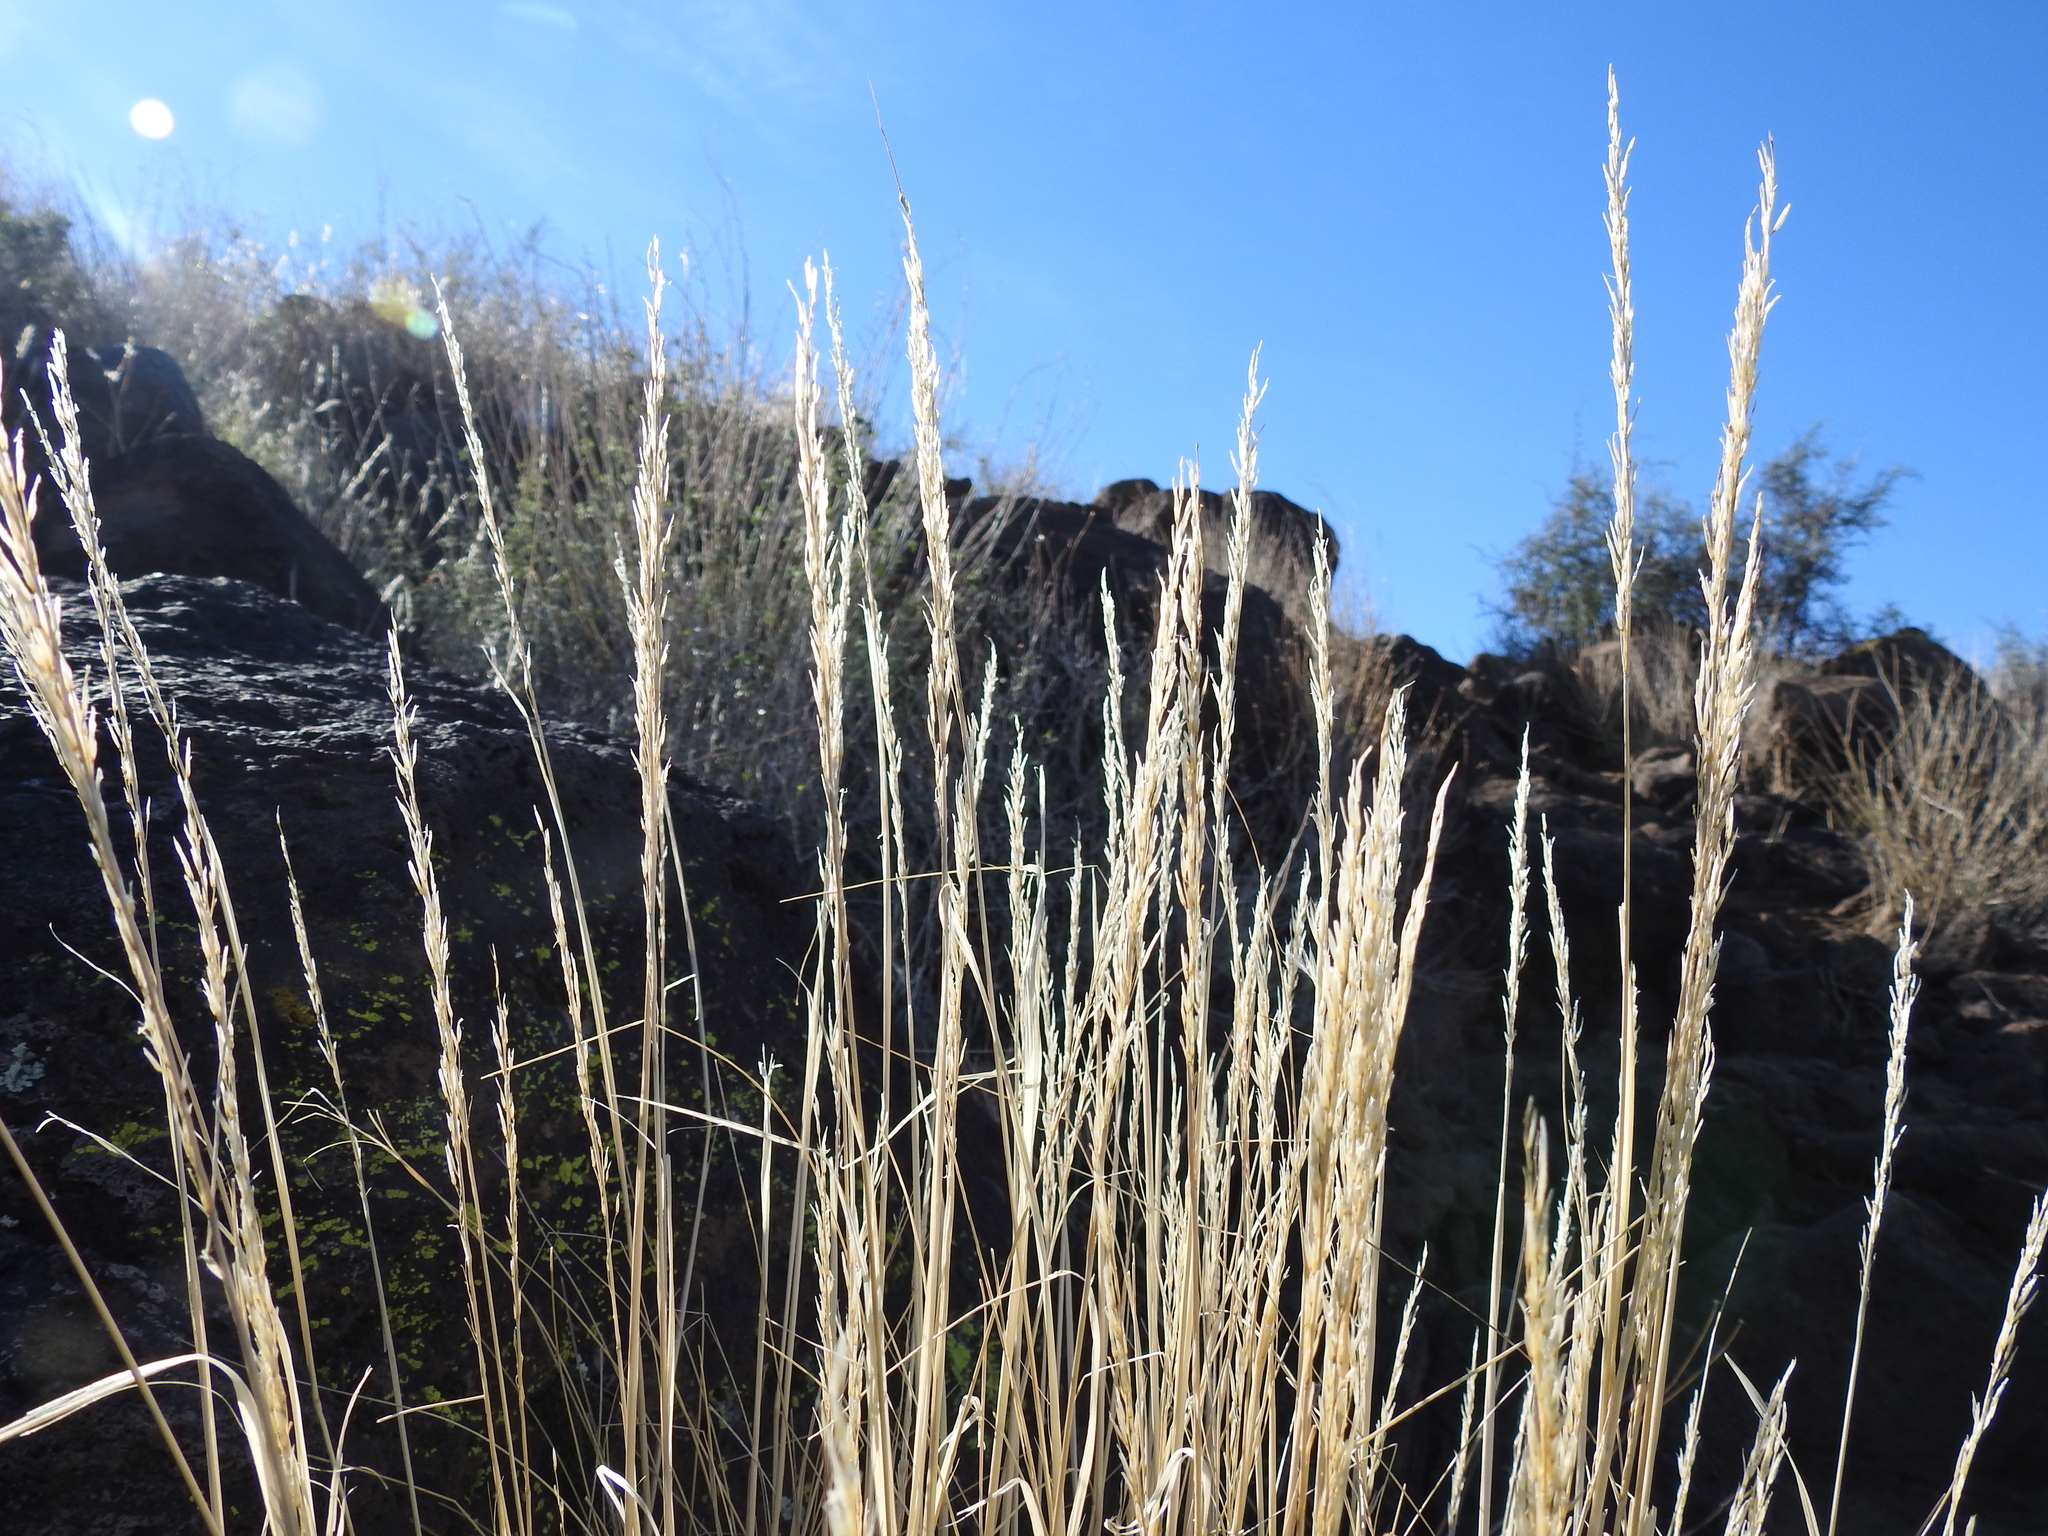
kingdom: Plantae
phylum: Tracheophyta
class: Liliopsida
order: Poales
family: Poaceae
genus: Pappostipa
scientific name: Pappostipa speciosa
